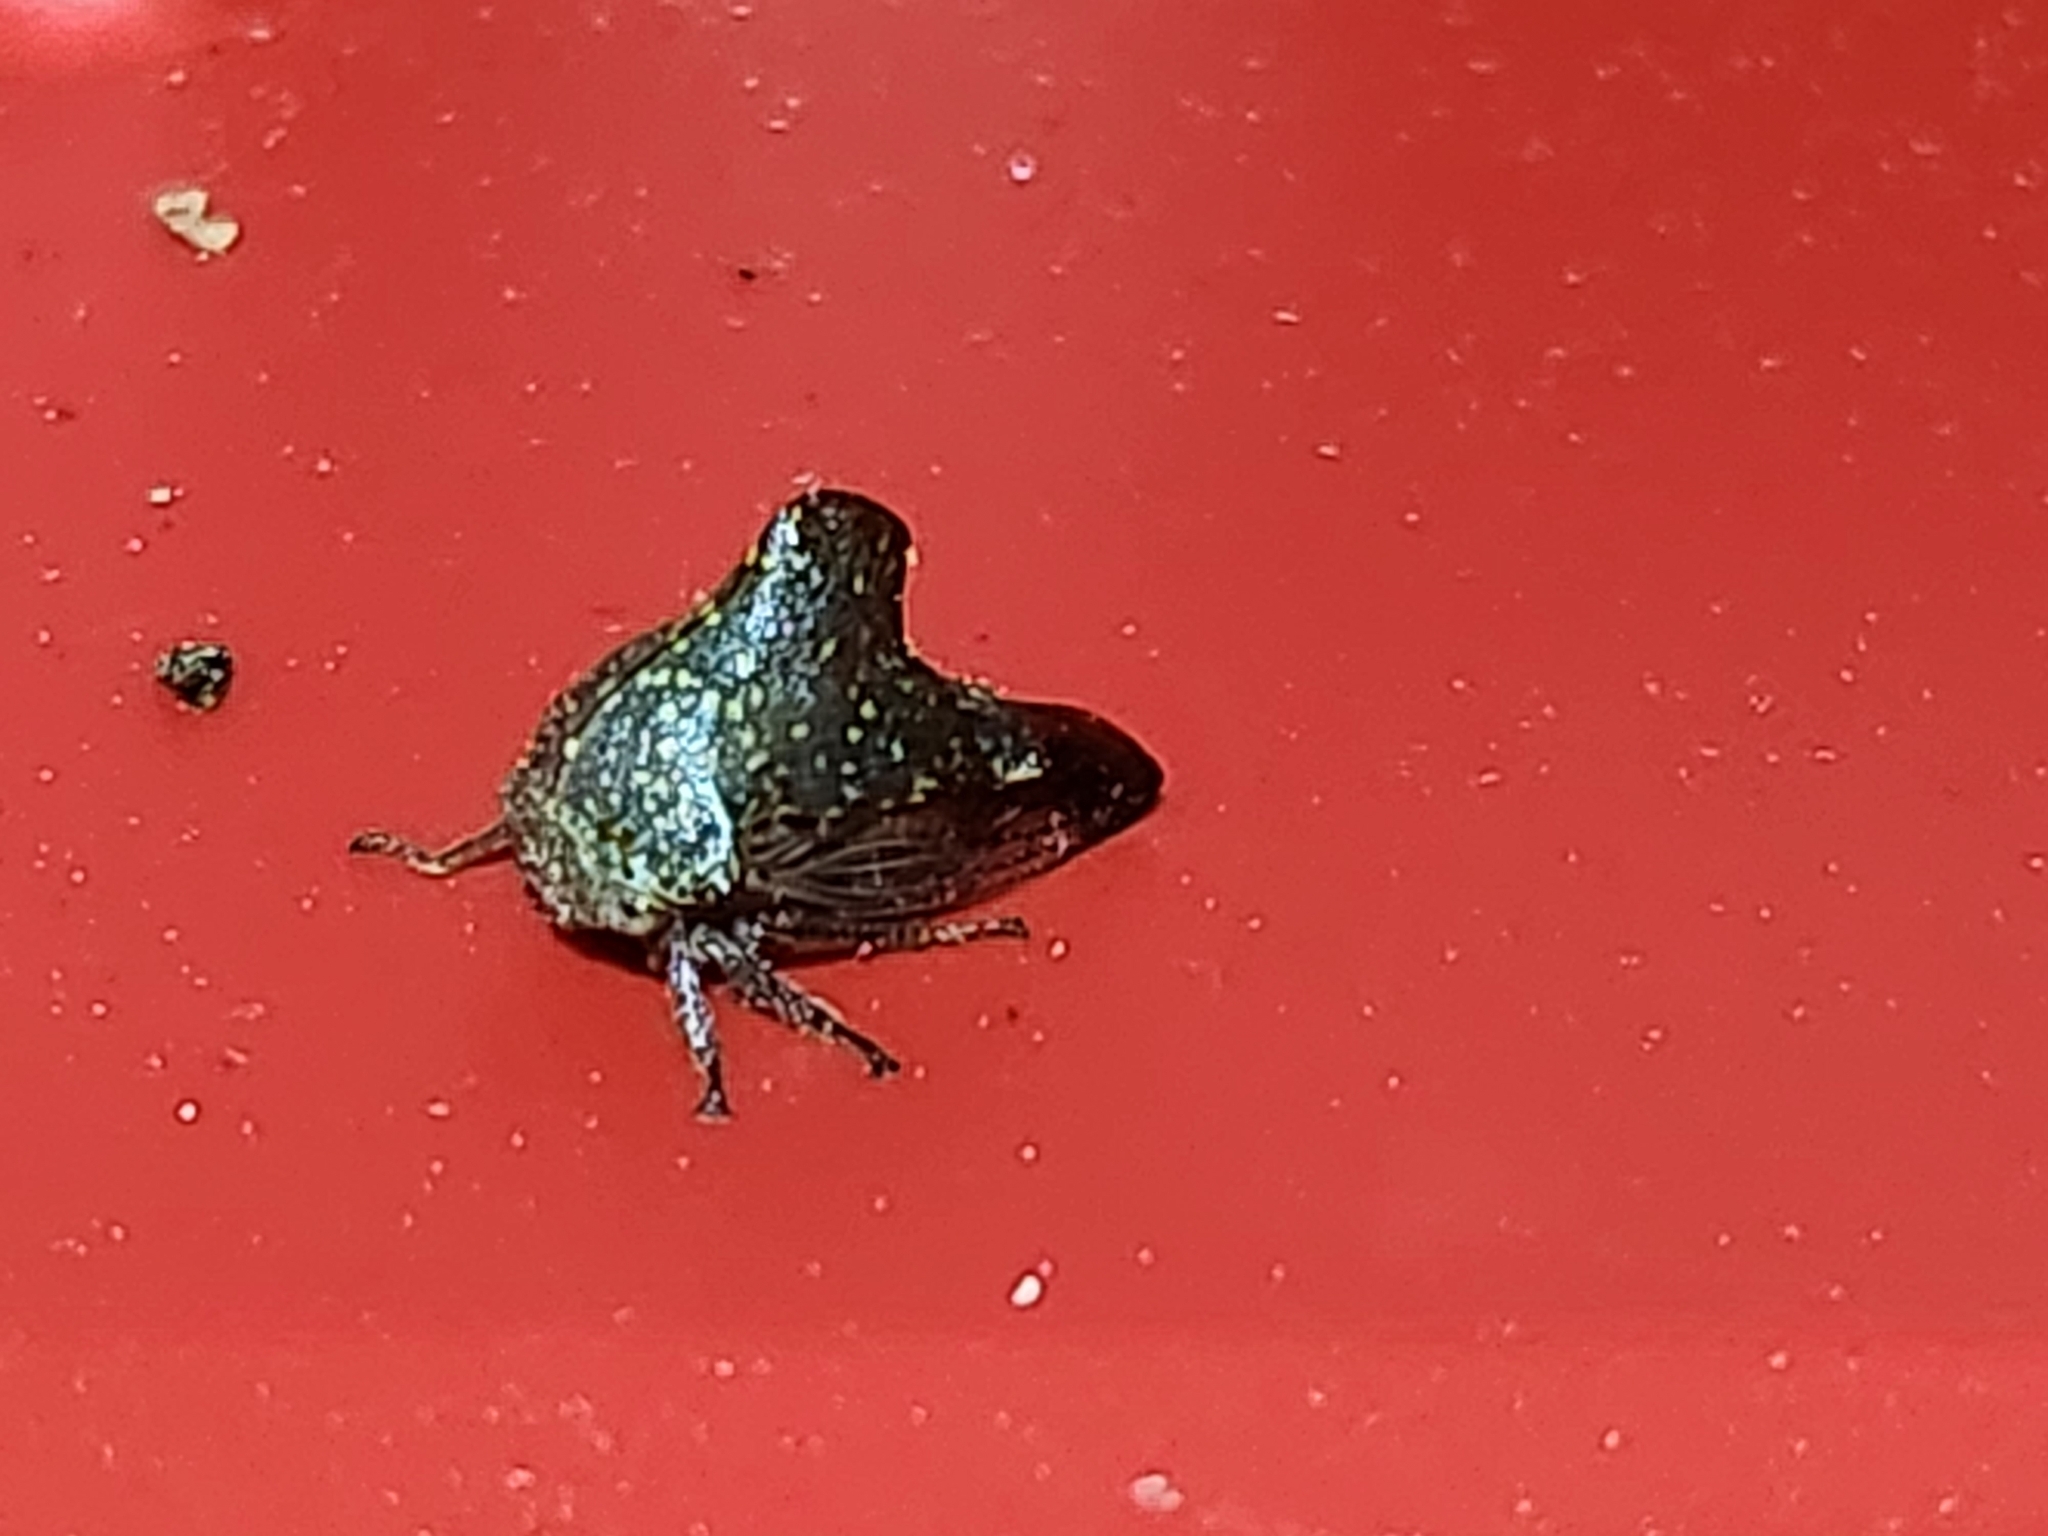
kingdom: Animalia
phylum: Arthropoda
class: Insecta
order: Hemiptera
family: Membracidae
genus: Telamona
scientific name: Telamona monticola
